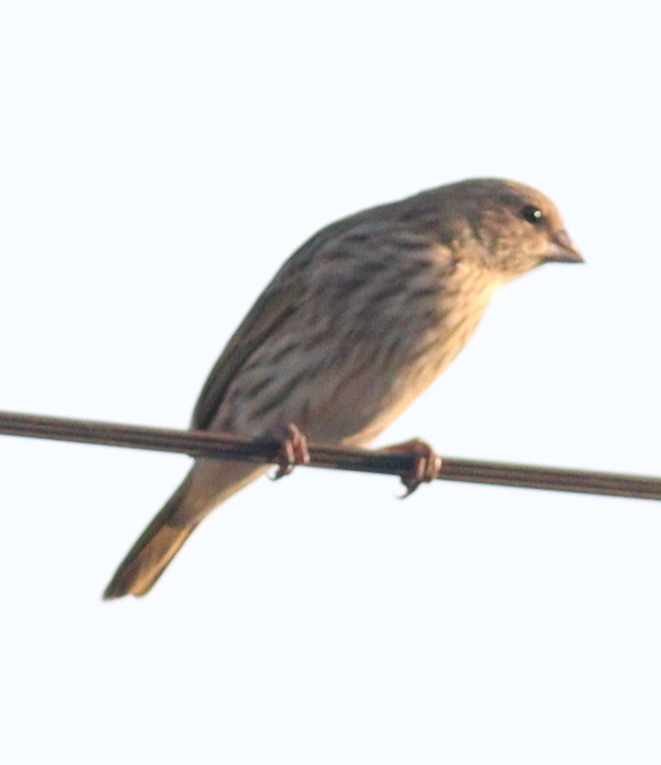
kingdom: Animalia
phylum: Chordata
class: Aves
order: Passeriformes
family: Thraupidae
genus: Sicalis
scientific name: Sicalis flaveola
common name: Saffron finch
